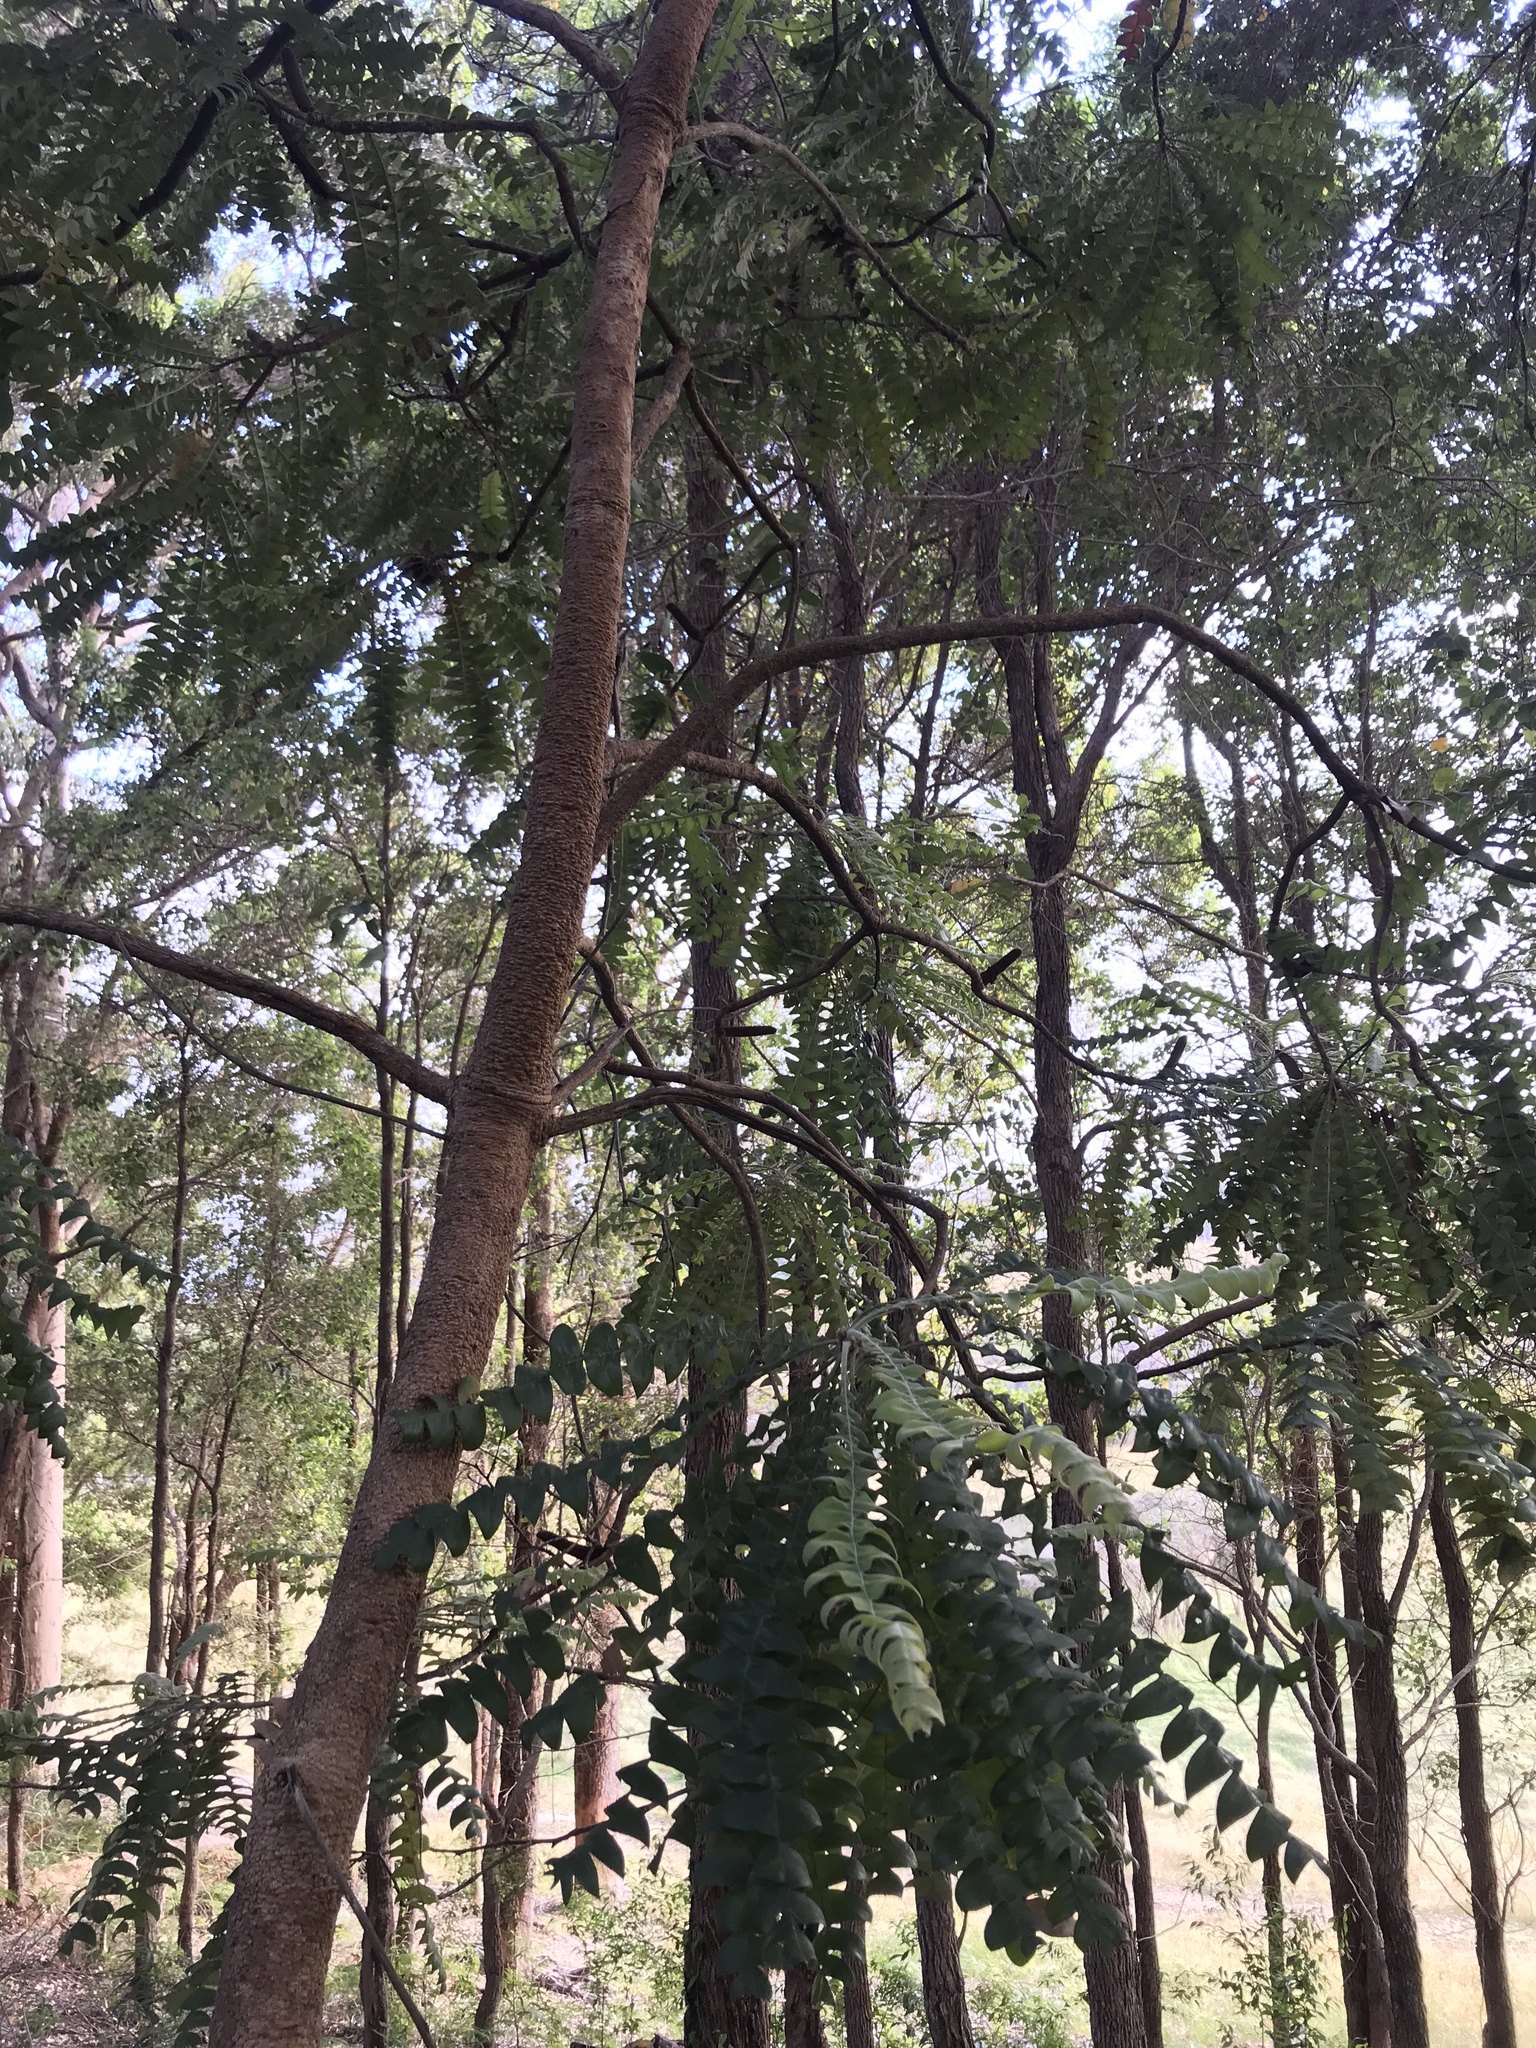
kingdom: Plantae
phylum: Tracheophyta
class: Magnoliopsida
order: Proteales
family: Proteaceae
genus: Banksia
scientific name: Banksia grandis
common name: Giant banksia
